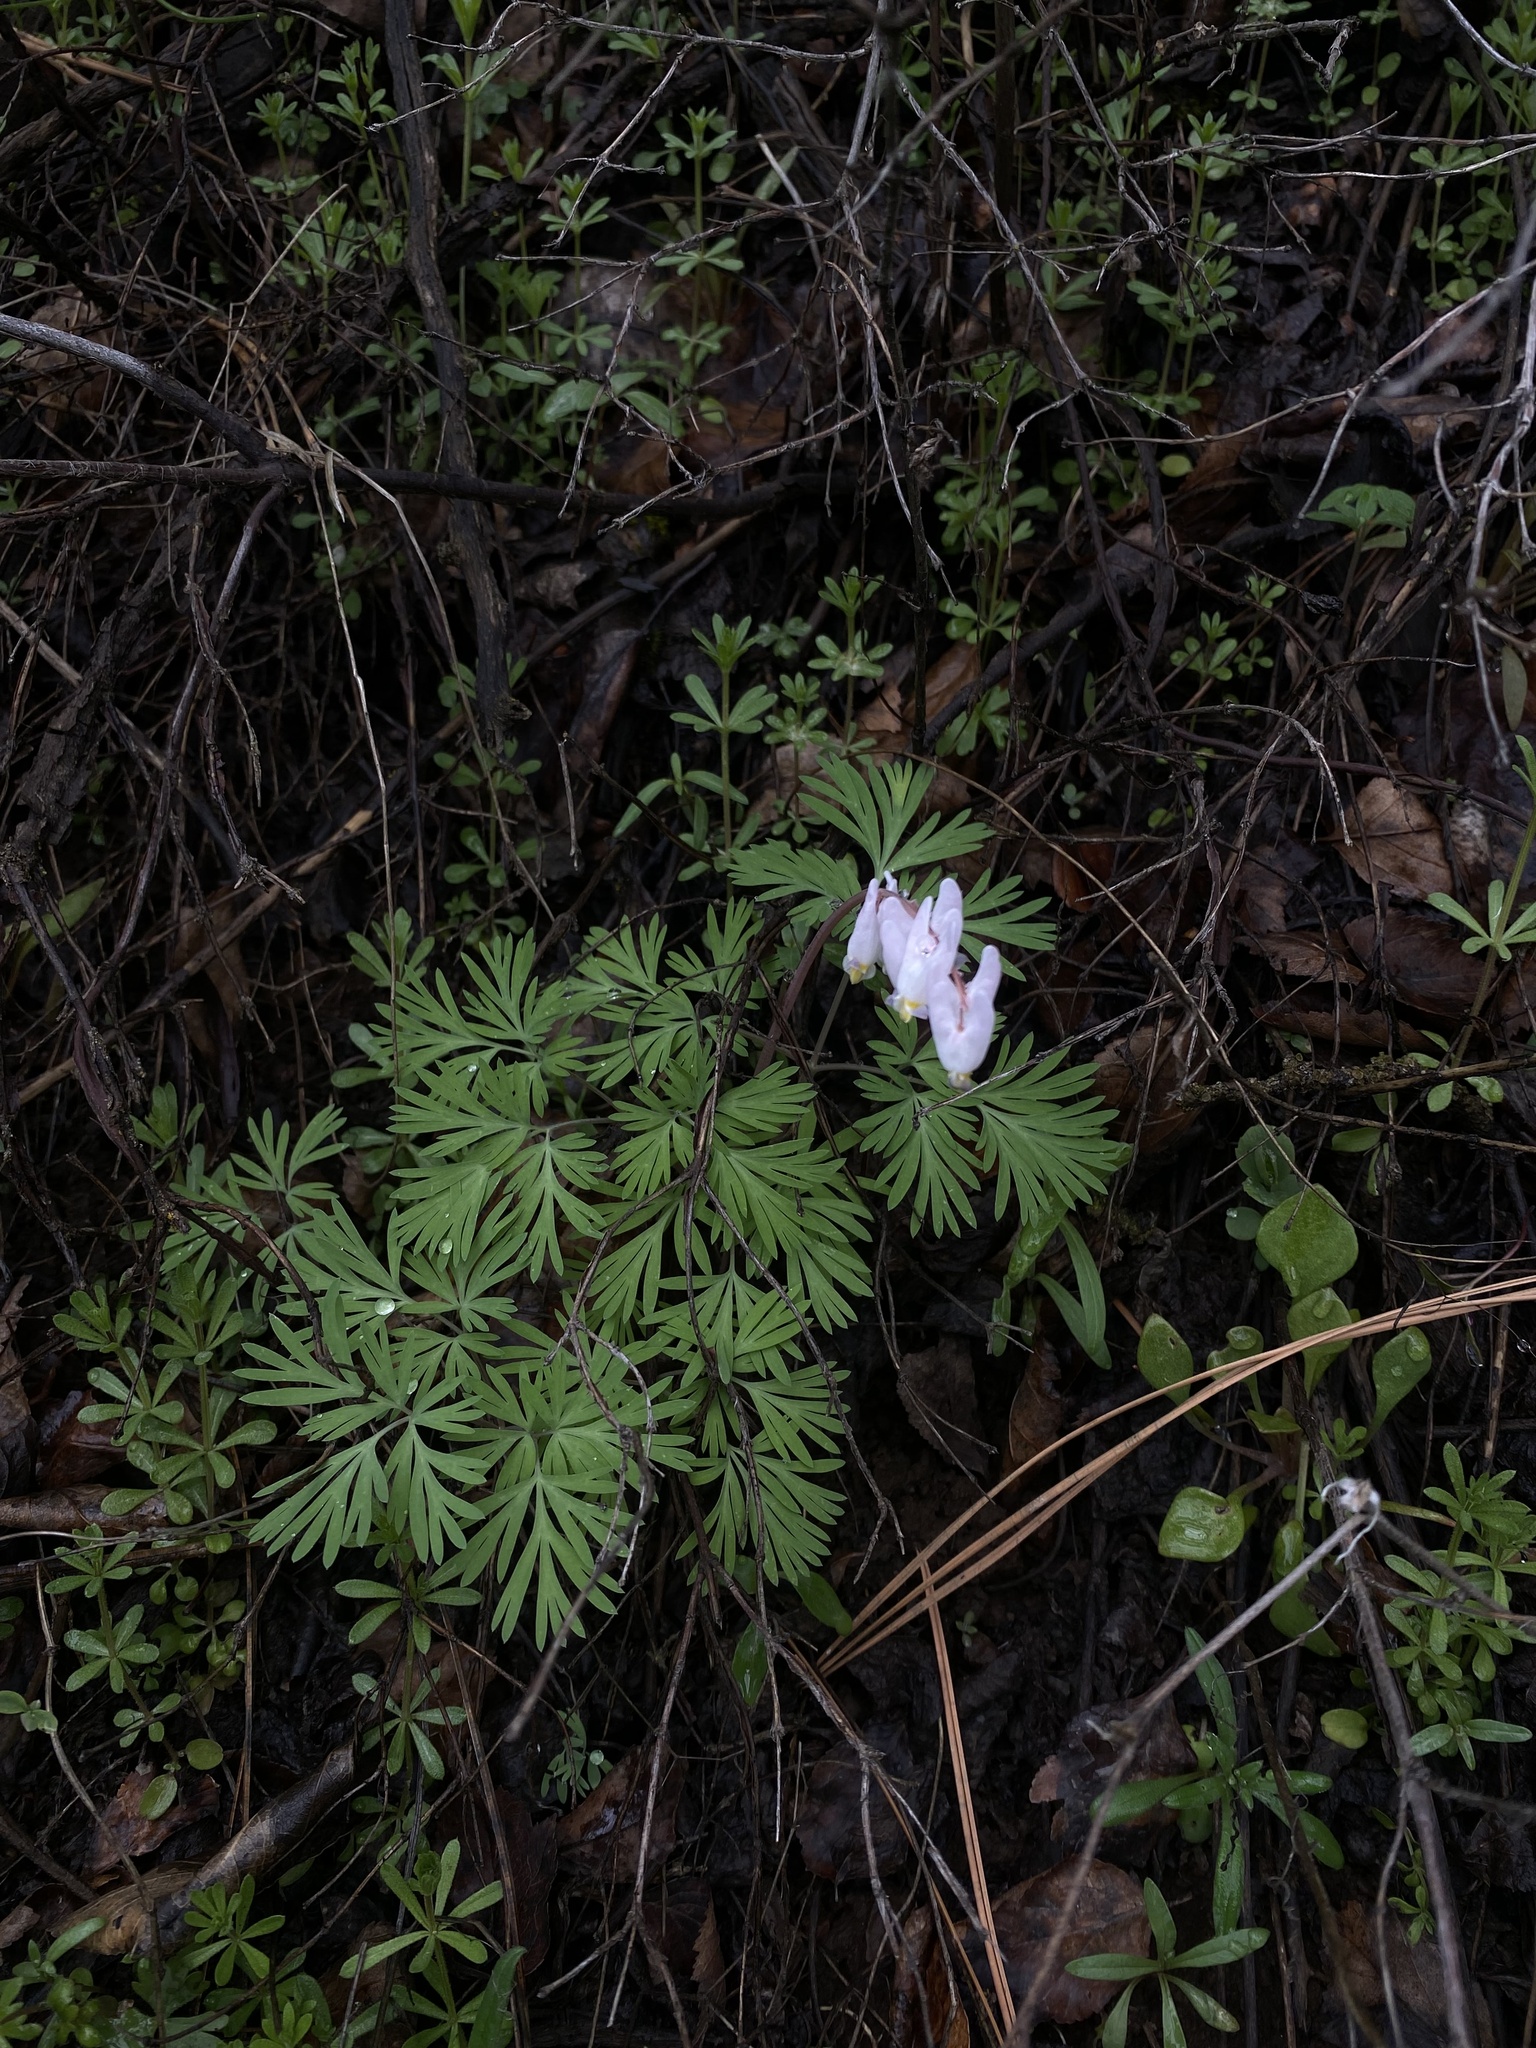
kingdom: Plantae
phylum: Tracheophyta
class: Magnoliopsida
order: Ranunculales
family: Papaveraceae
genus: Dicentra
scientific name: Dicentra cucullaria
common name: Dutchman's breeches
